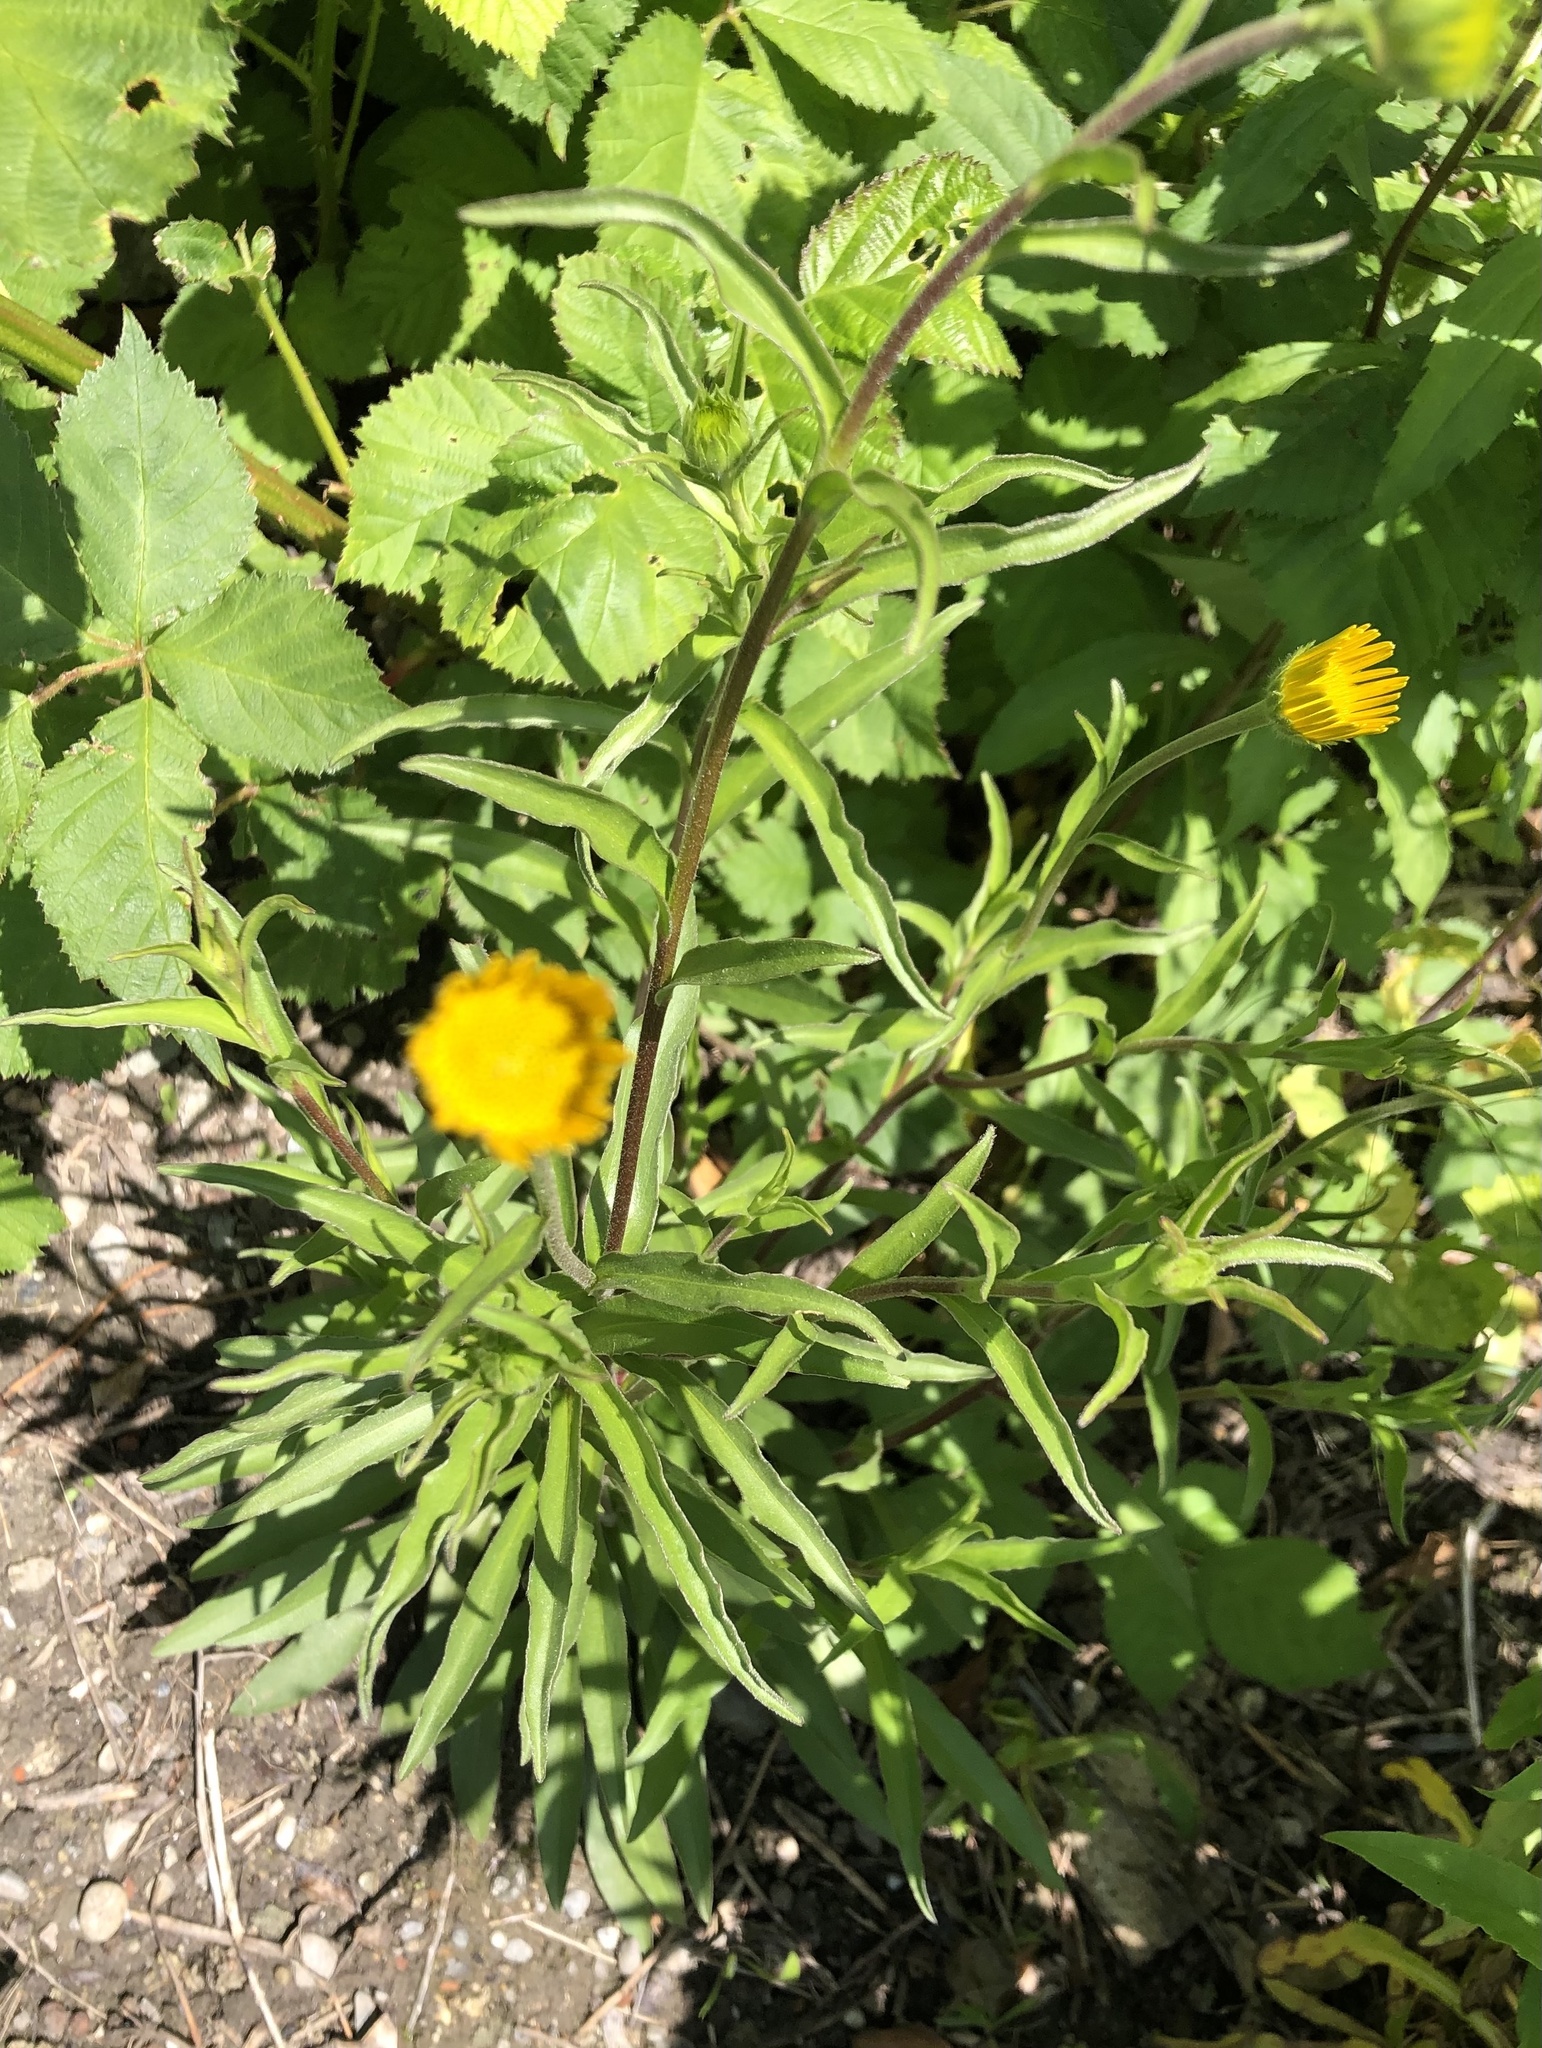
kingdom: Plantae
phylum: Tracheophyta
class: Magnoliopsida
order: Asterales
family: Asteraceae
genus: Buphthalmum
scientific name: Buphthalmum salicifolium
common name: Willow-leaved yellow-oxeye
